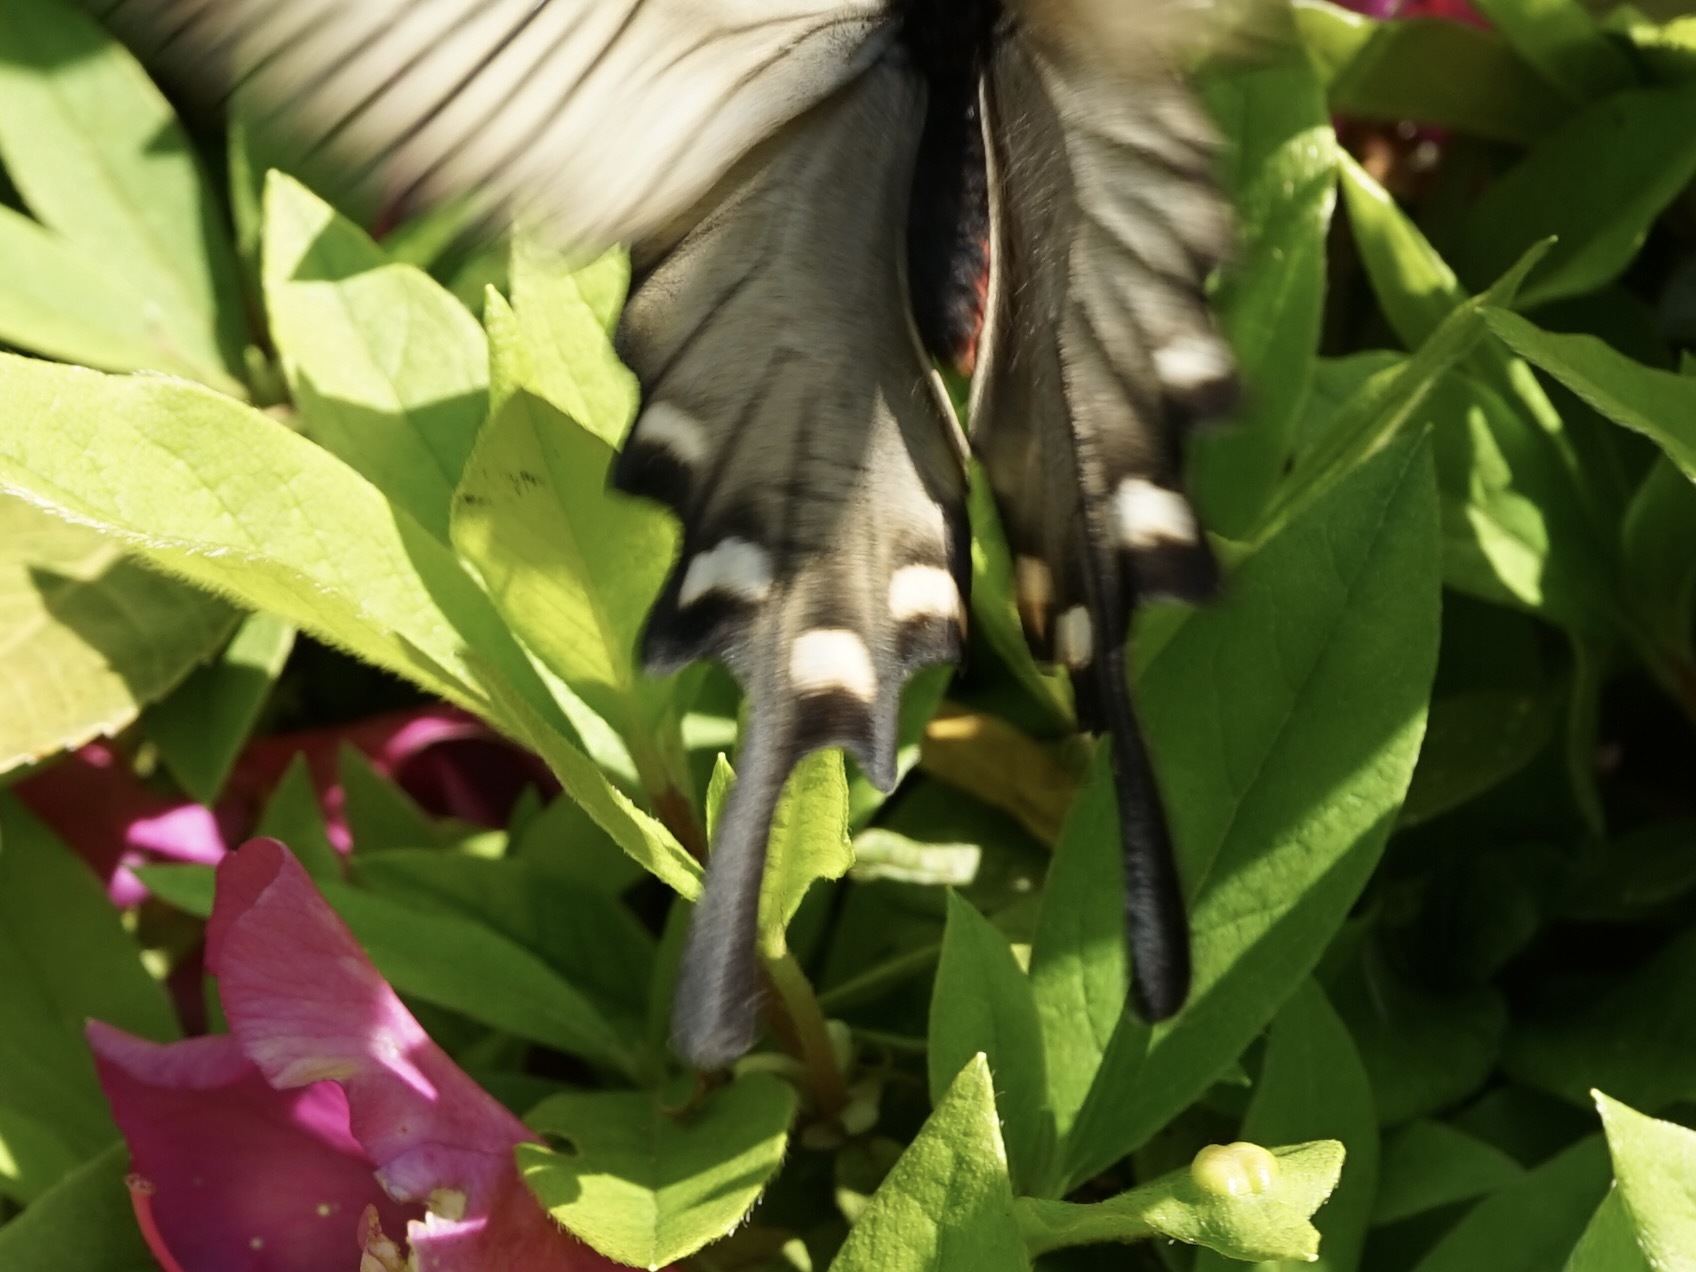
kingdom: Animalia
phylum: Arthropoda
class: Insecta
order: Lepidoptera
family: Papilionidae
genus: Byasa
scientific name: Byasa alcinous
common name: Chinese windmill
